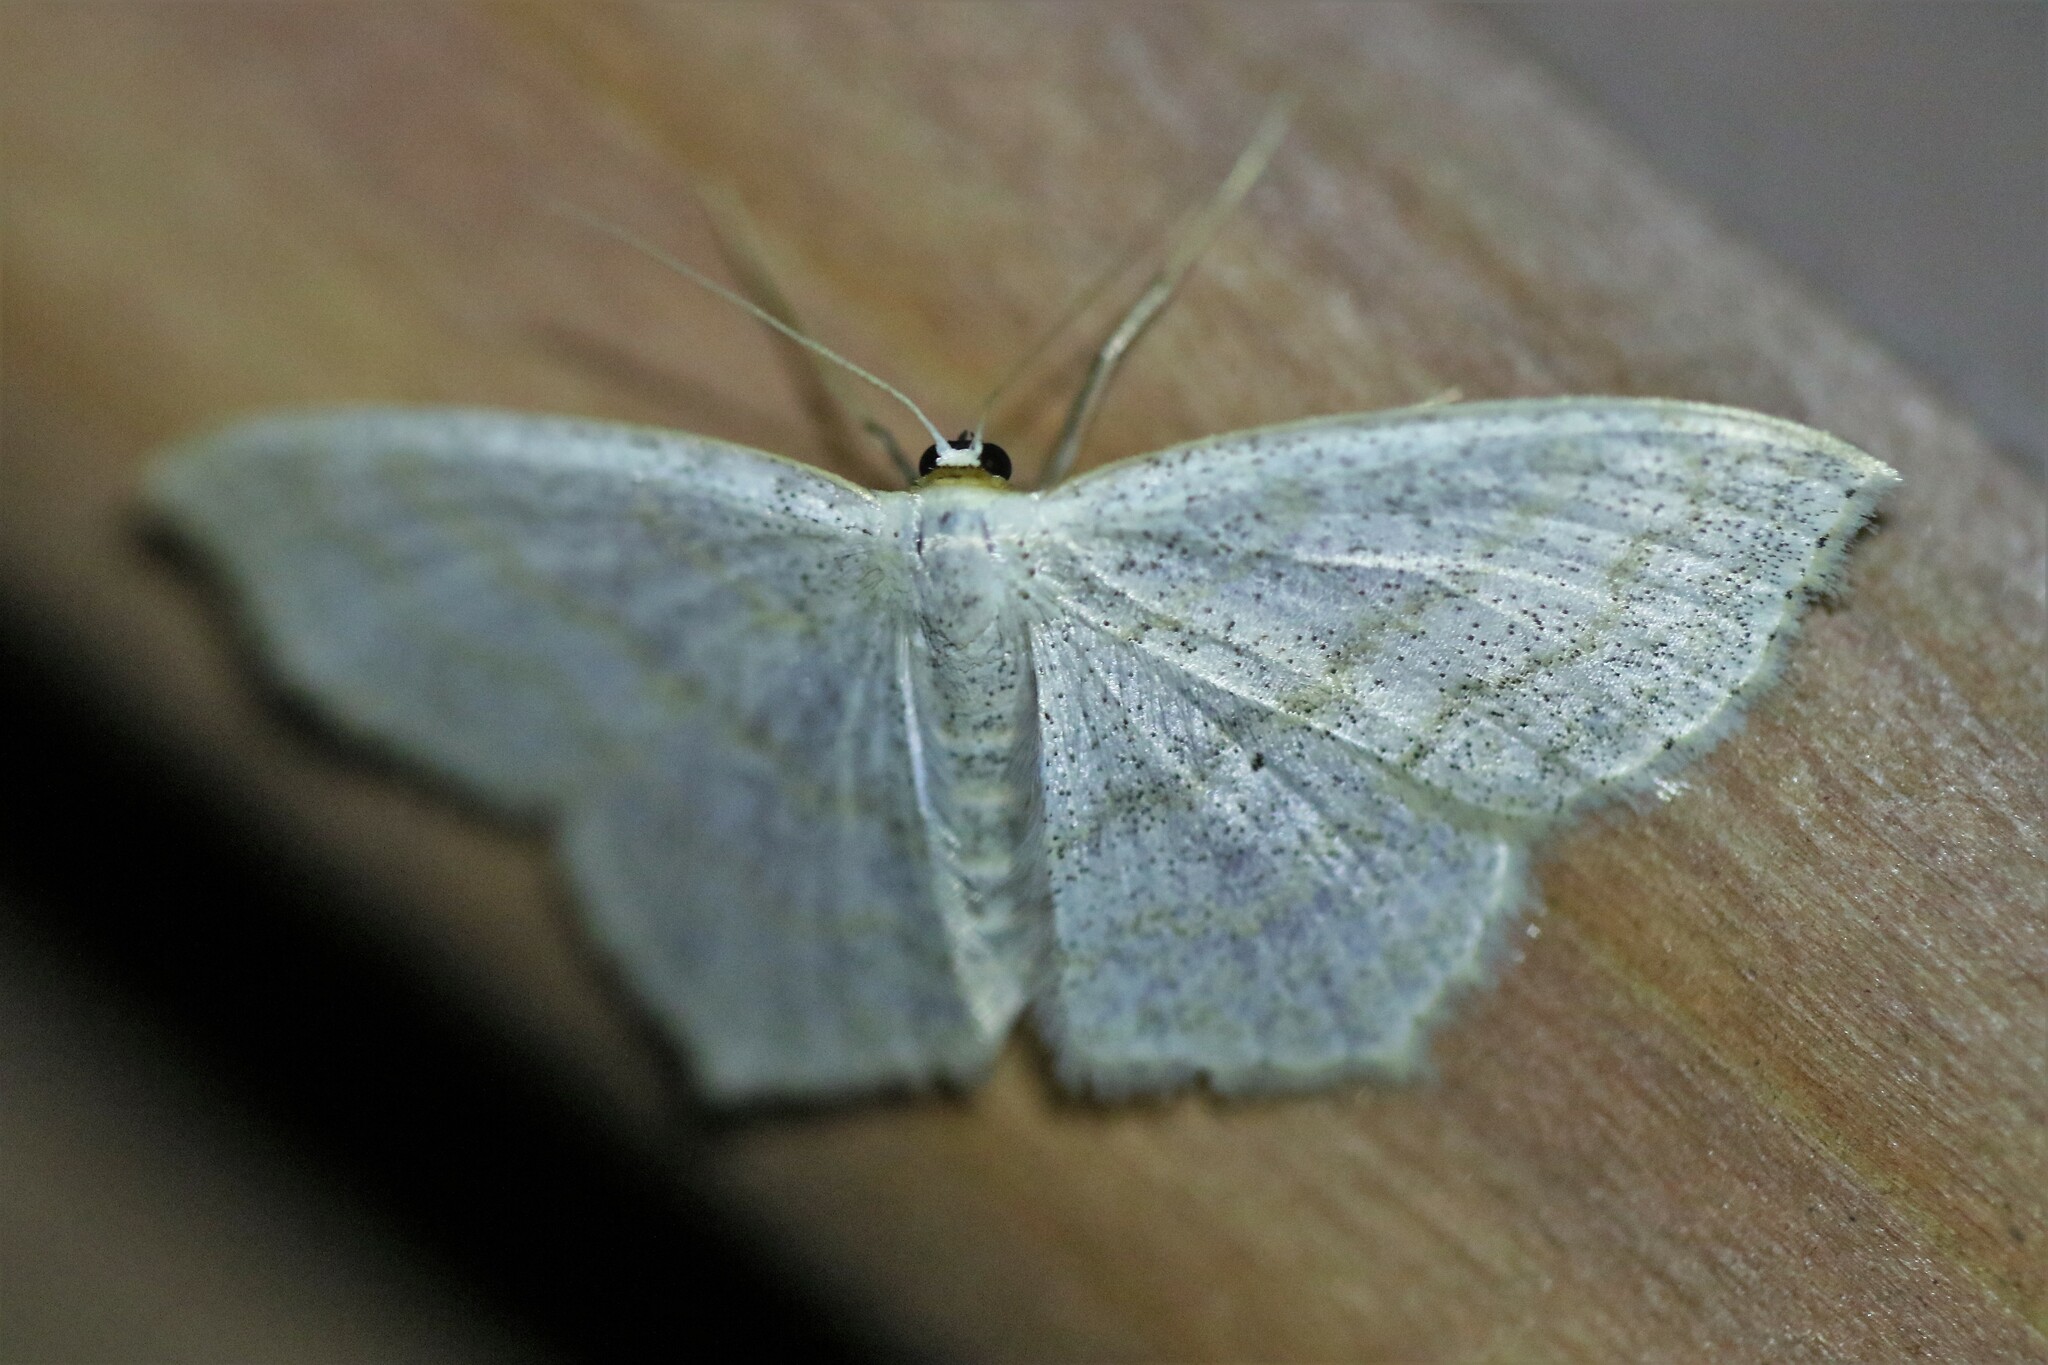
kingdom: Animalia
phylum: Arthropoda
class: Insecta
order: Lepidoptera
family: Geometridae
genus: Scopula
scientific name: Scopula junctaria
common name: Simple wave
